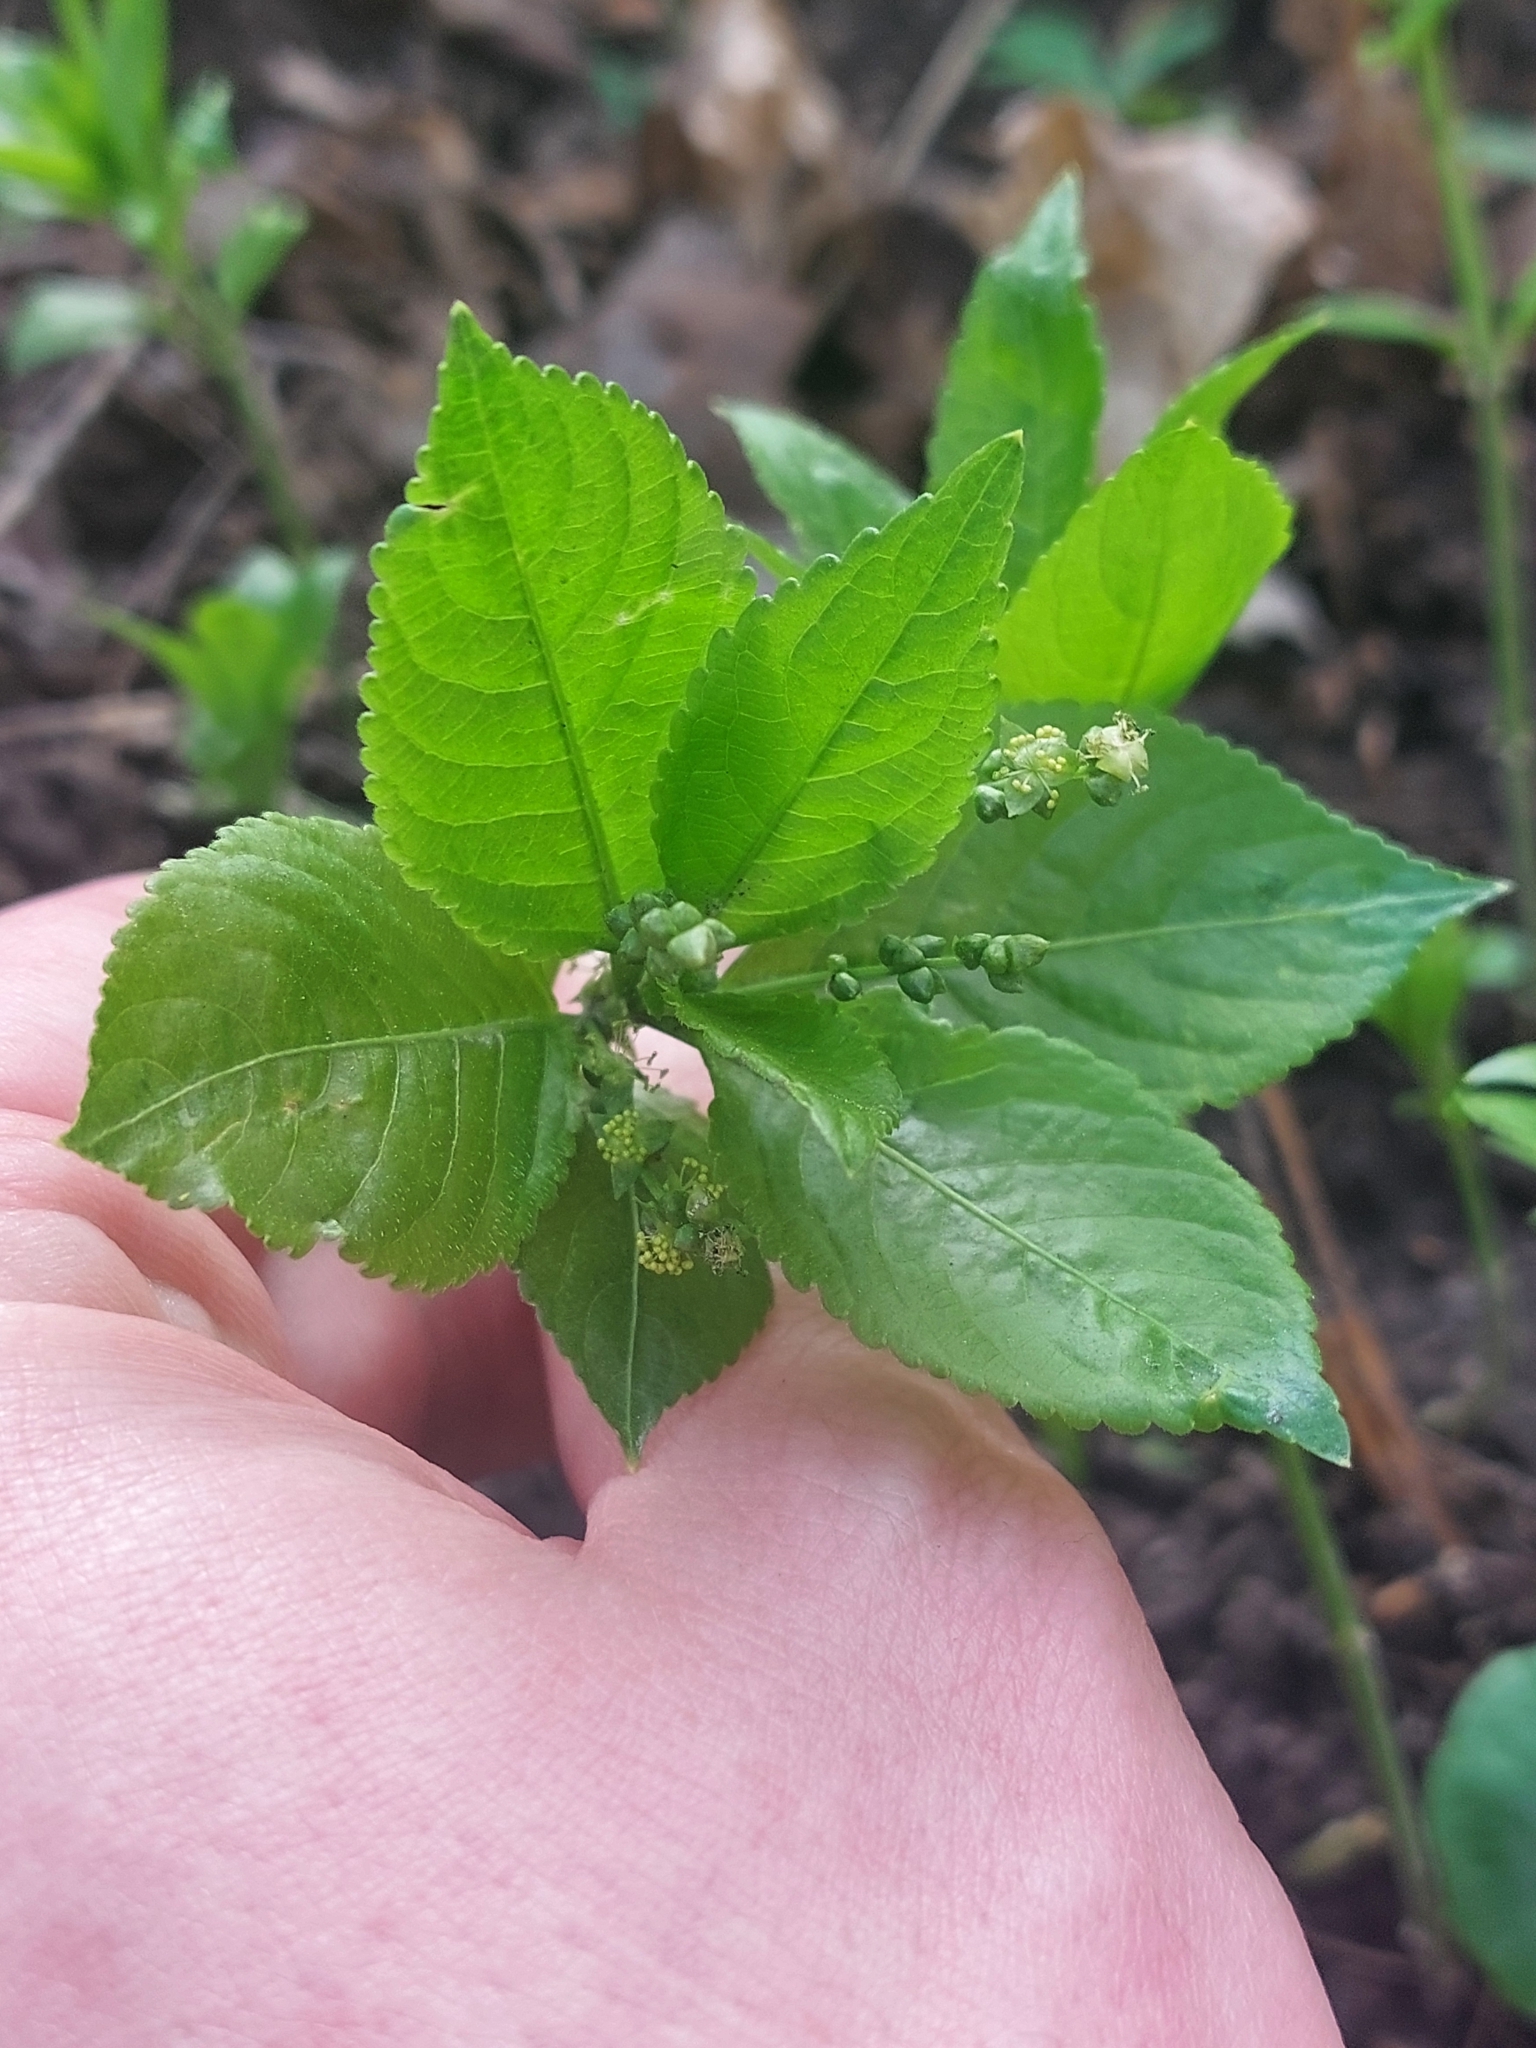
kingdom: Plantae
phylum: Tracheophyta
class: Magnoliopsida
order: Malpighiales
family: Euphorbiaceae
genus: Mercurialis
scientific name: Mercurialis perennis
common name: Dog mercury
